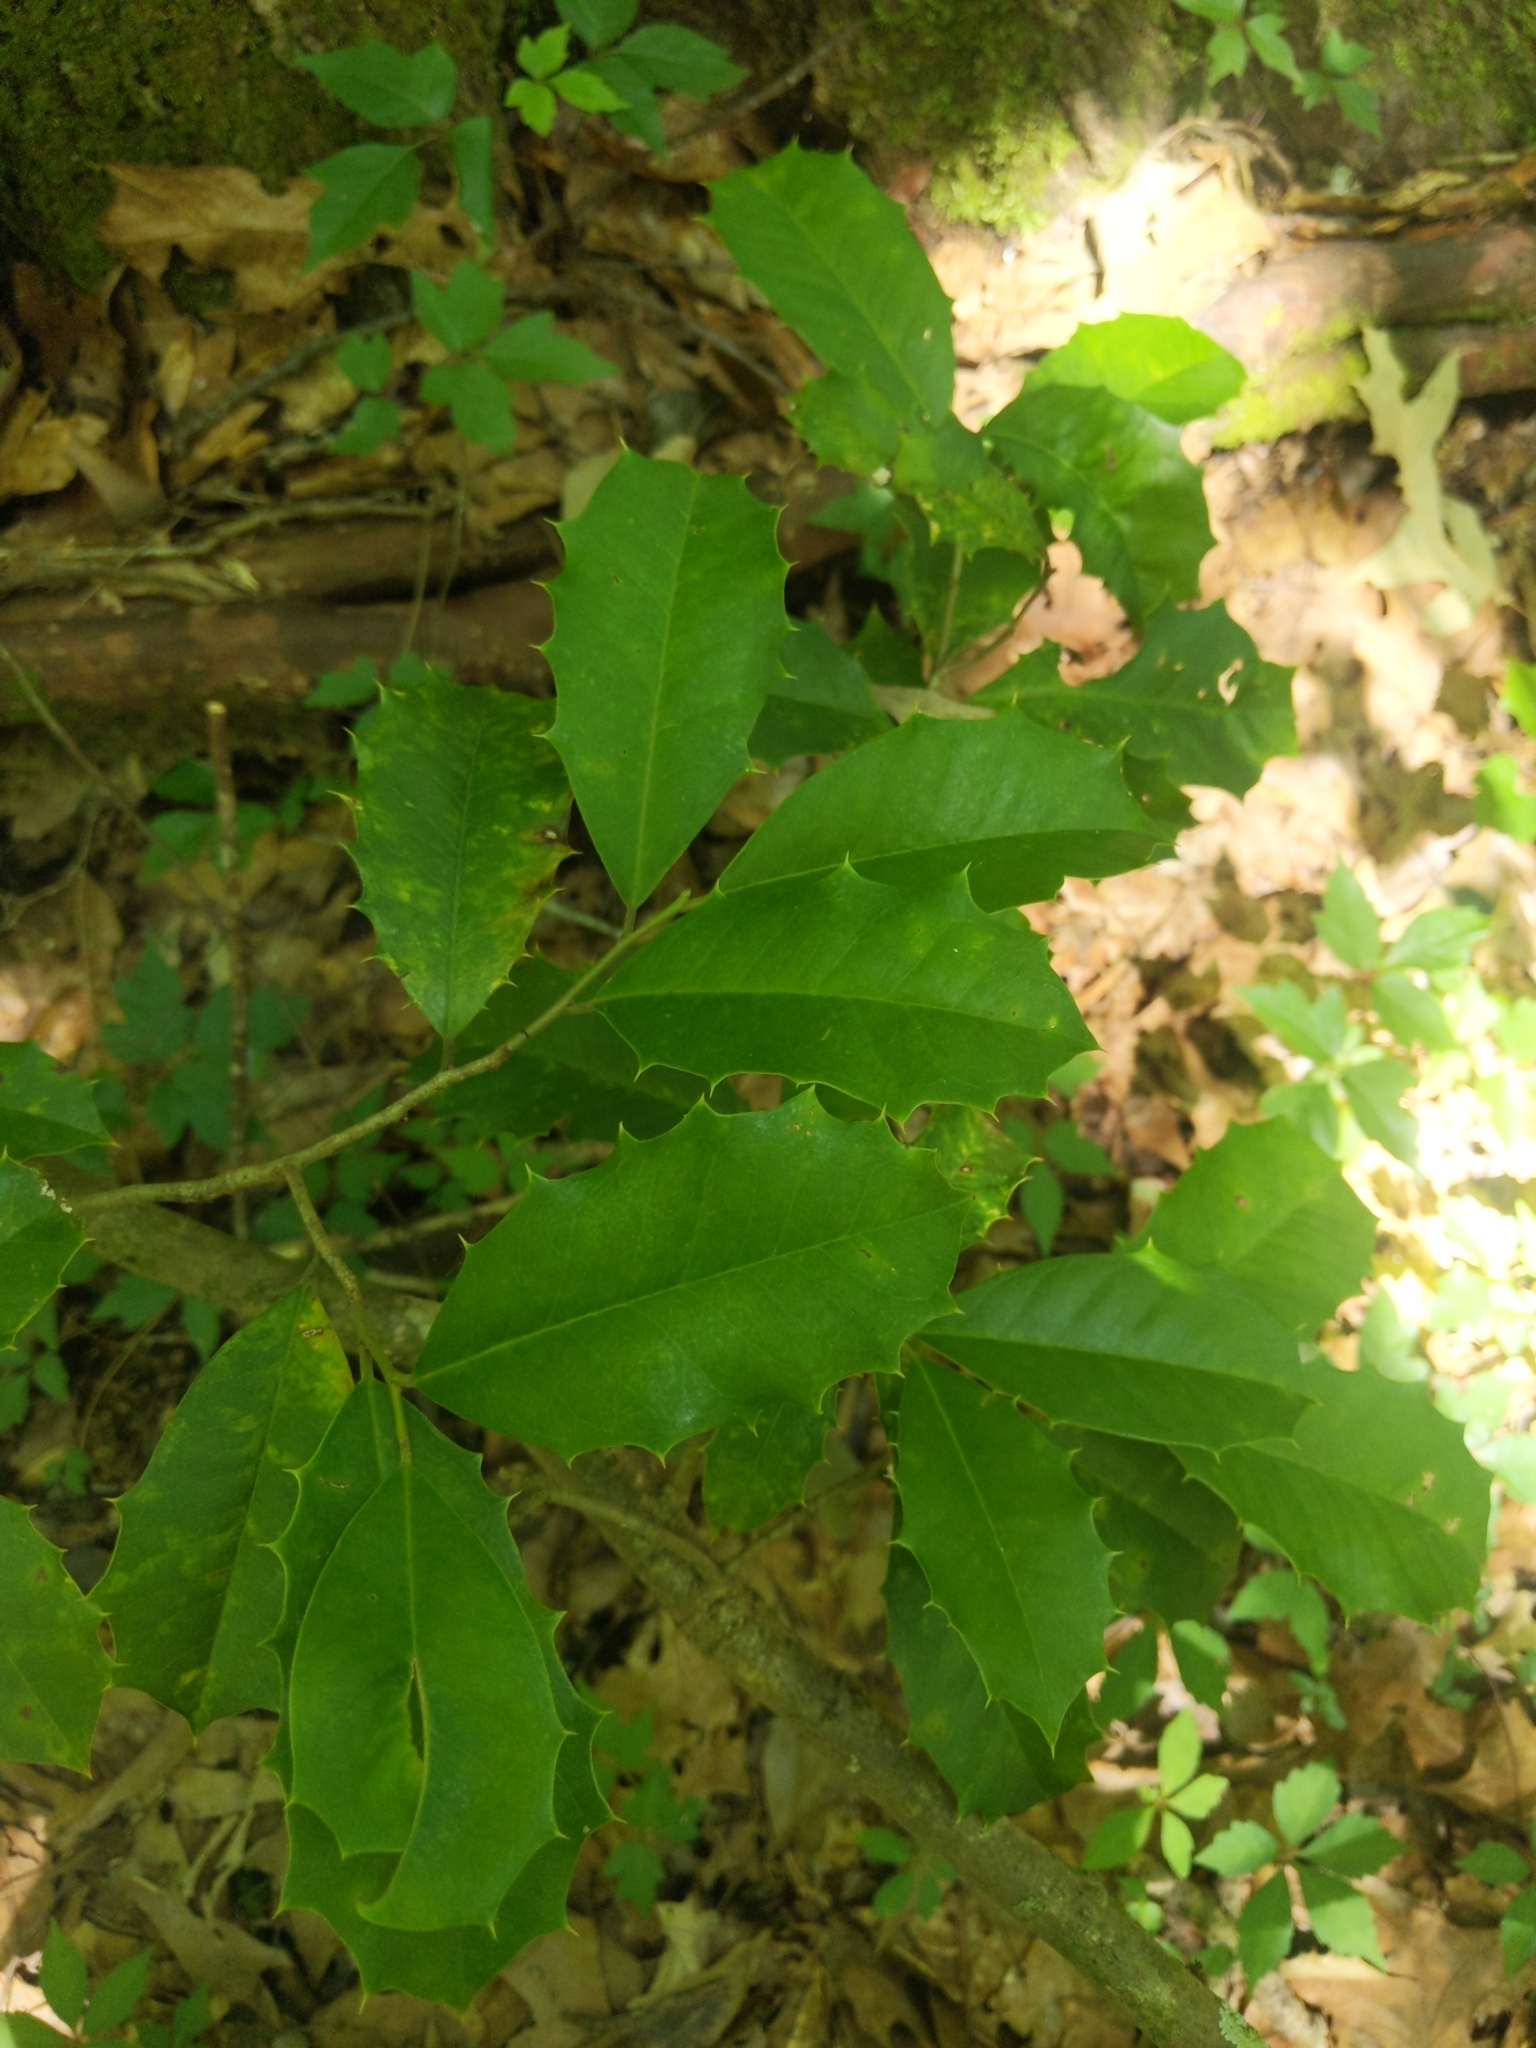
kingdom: Plantae
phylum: Tracheophyta
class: Magnoliopsida
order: Aquifoliales
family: Aquifoliaceae
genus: Ilex
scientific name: Ilex opaca
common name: American holly
